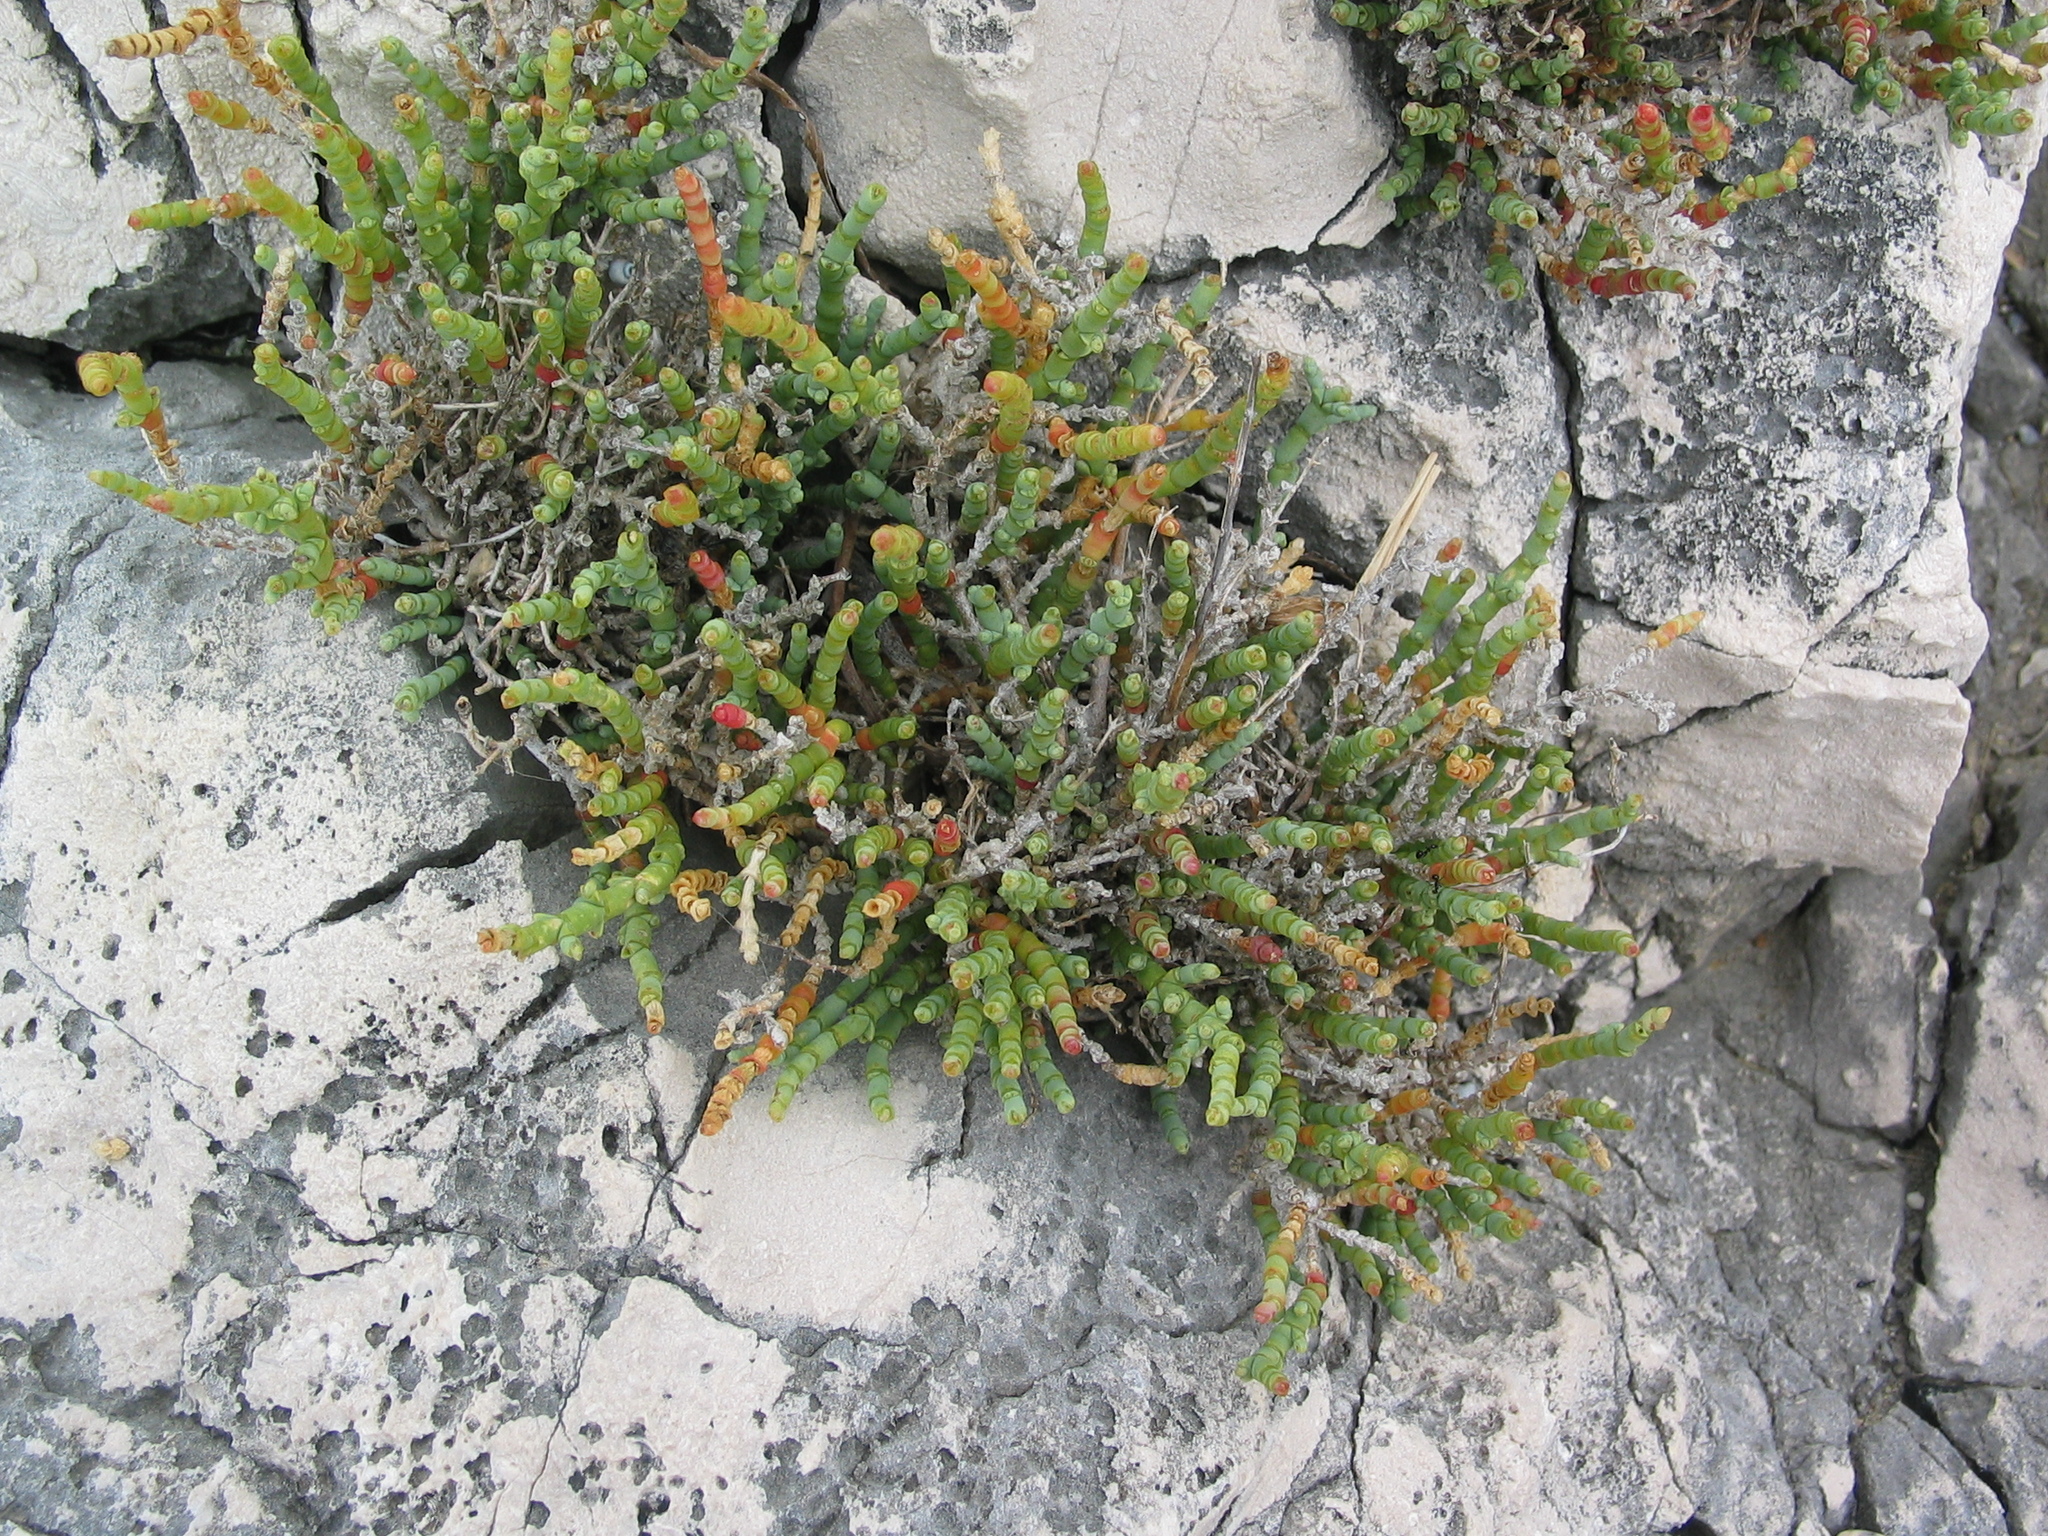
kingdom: Plantae
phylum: Tracheophyta
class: Magnoliopsida
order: Caryophyllales
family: Amaranthaceae
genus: Arthrocaulon
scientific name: Arthrocaulon macrostachyum
